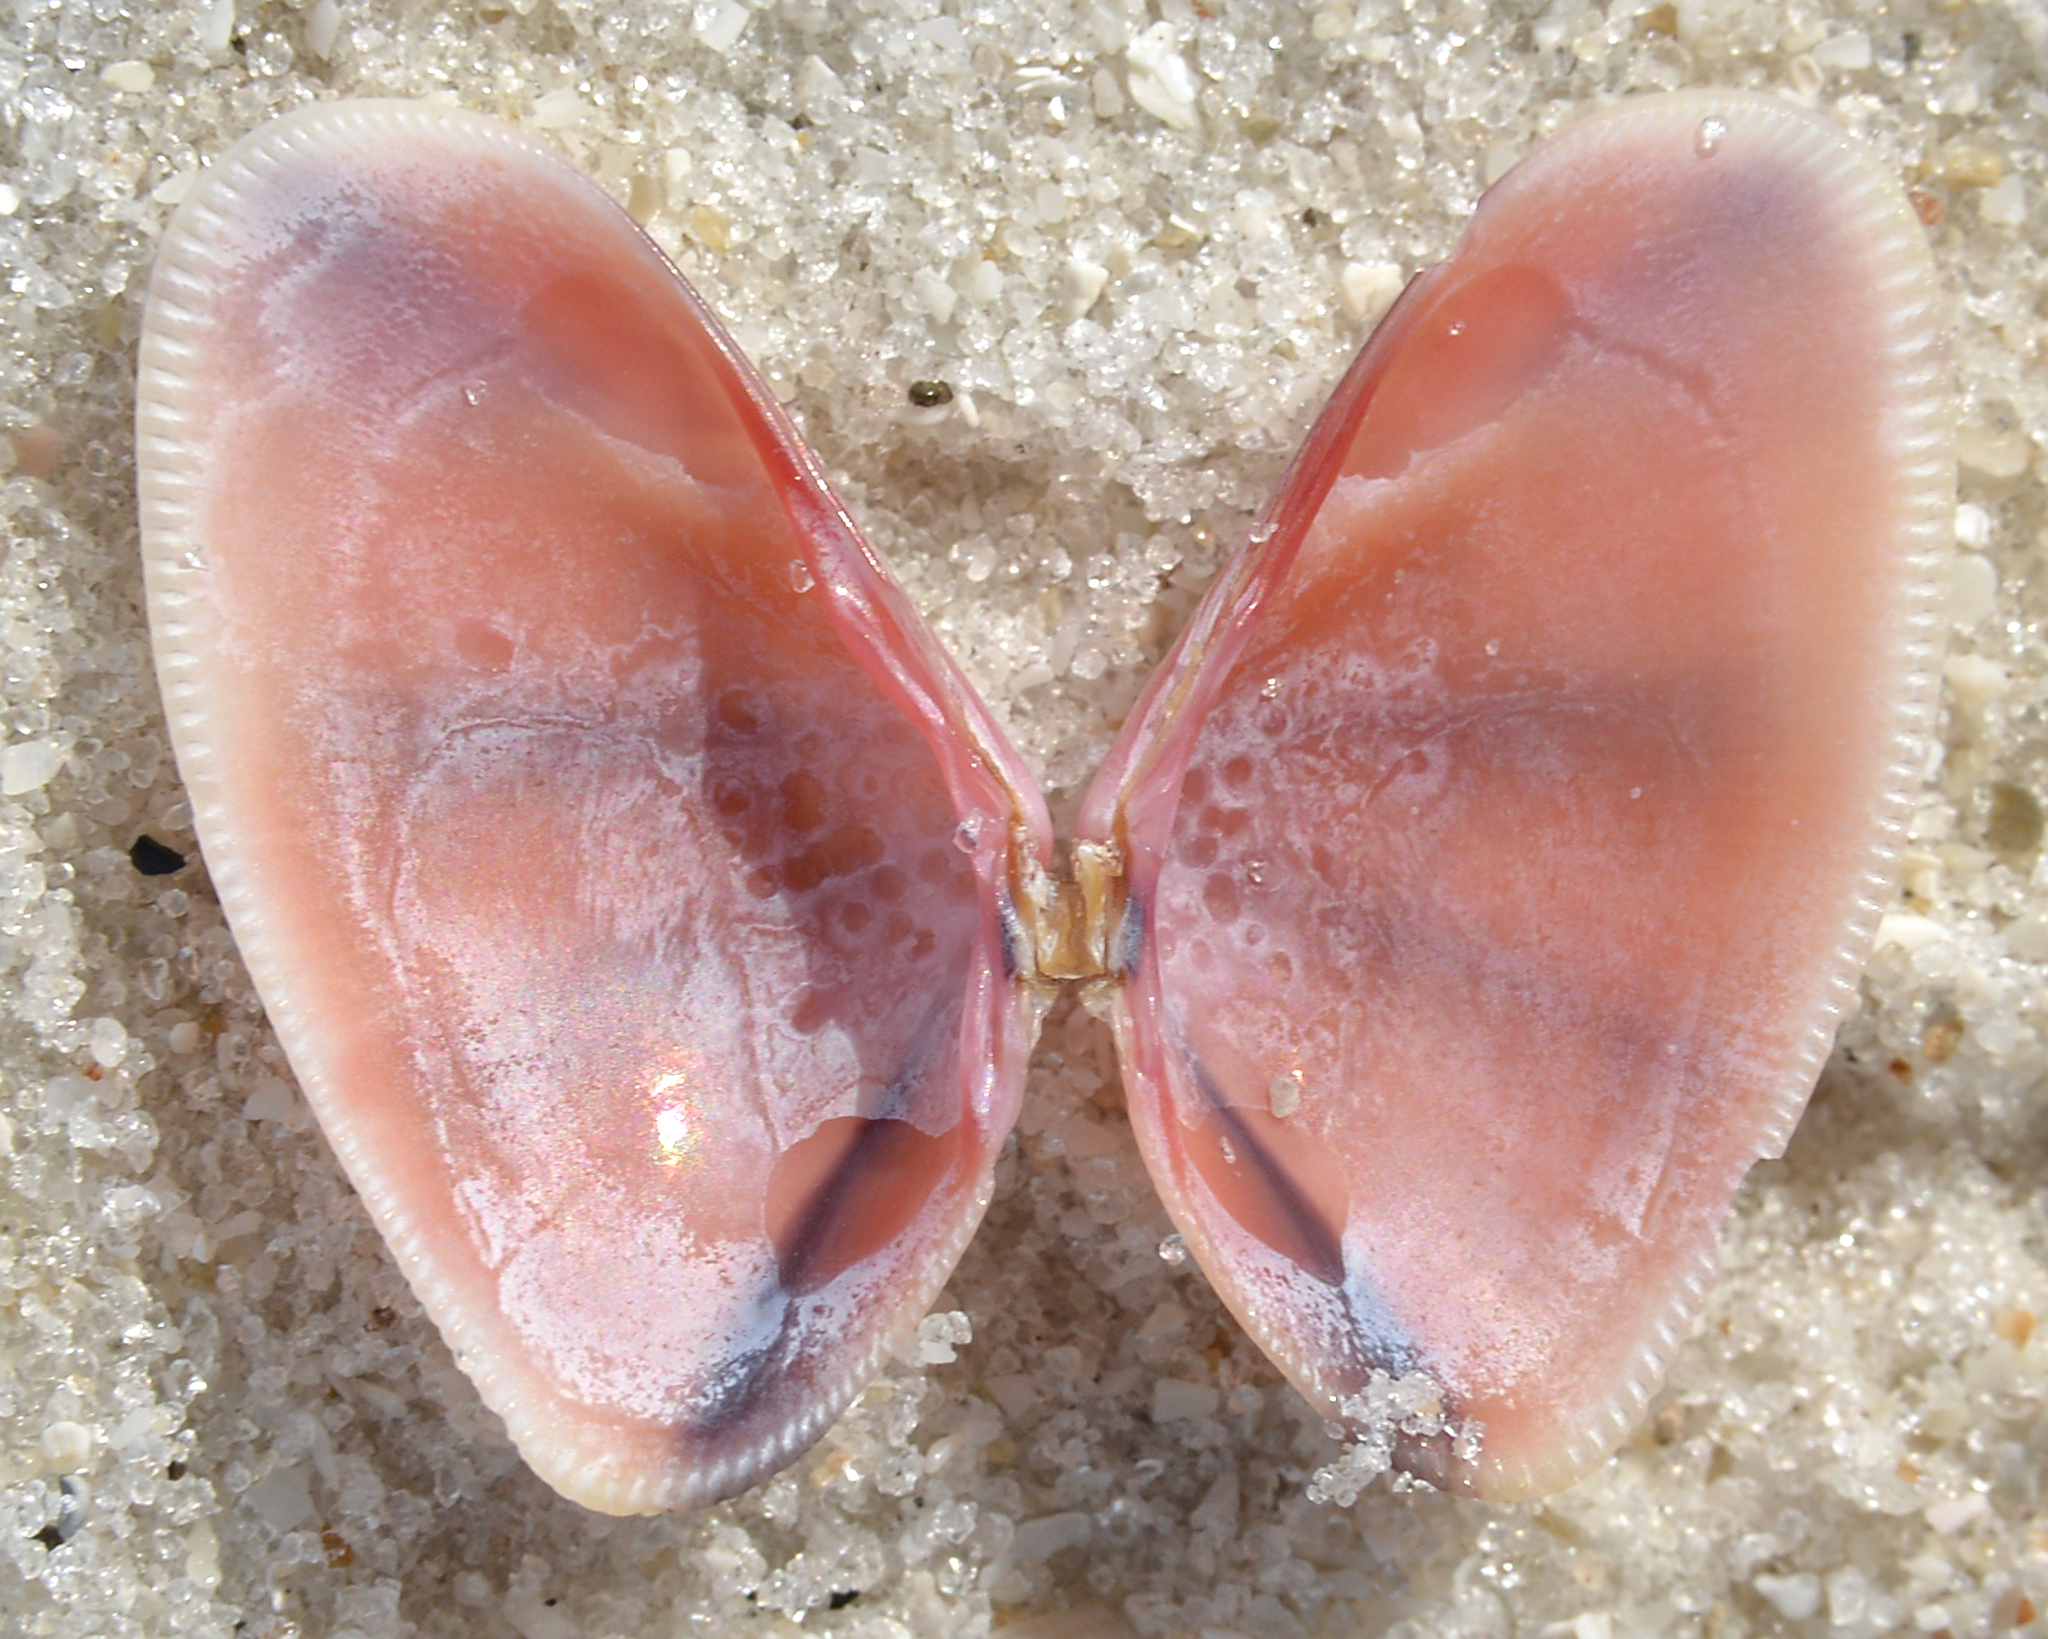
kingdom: Animalia
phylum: Mollusca
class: Bivalvia
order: Cardiida
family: Donacidae
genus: Donax
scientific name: Donax variabilis
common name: Butterfly shell
